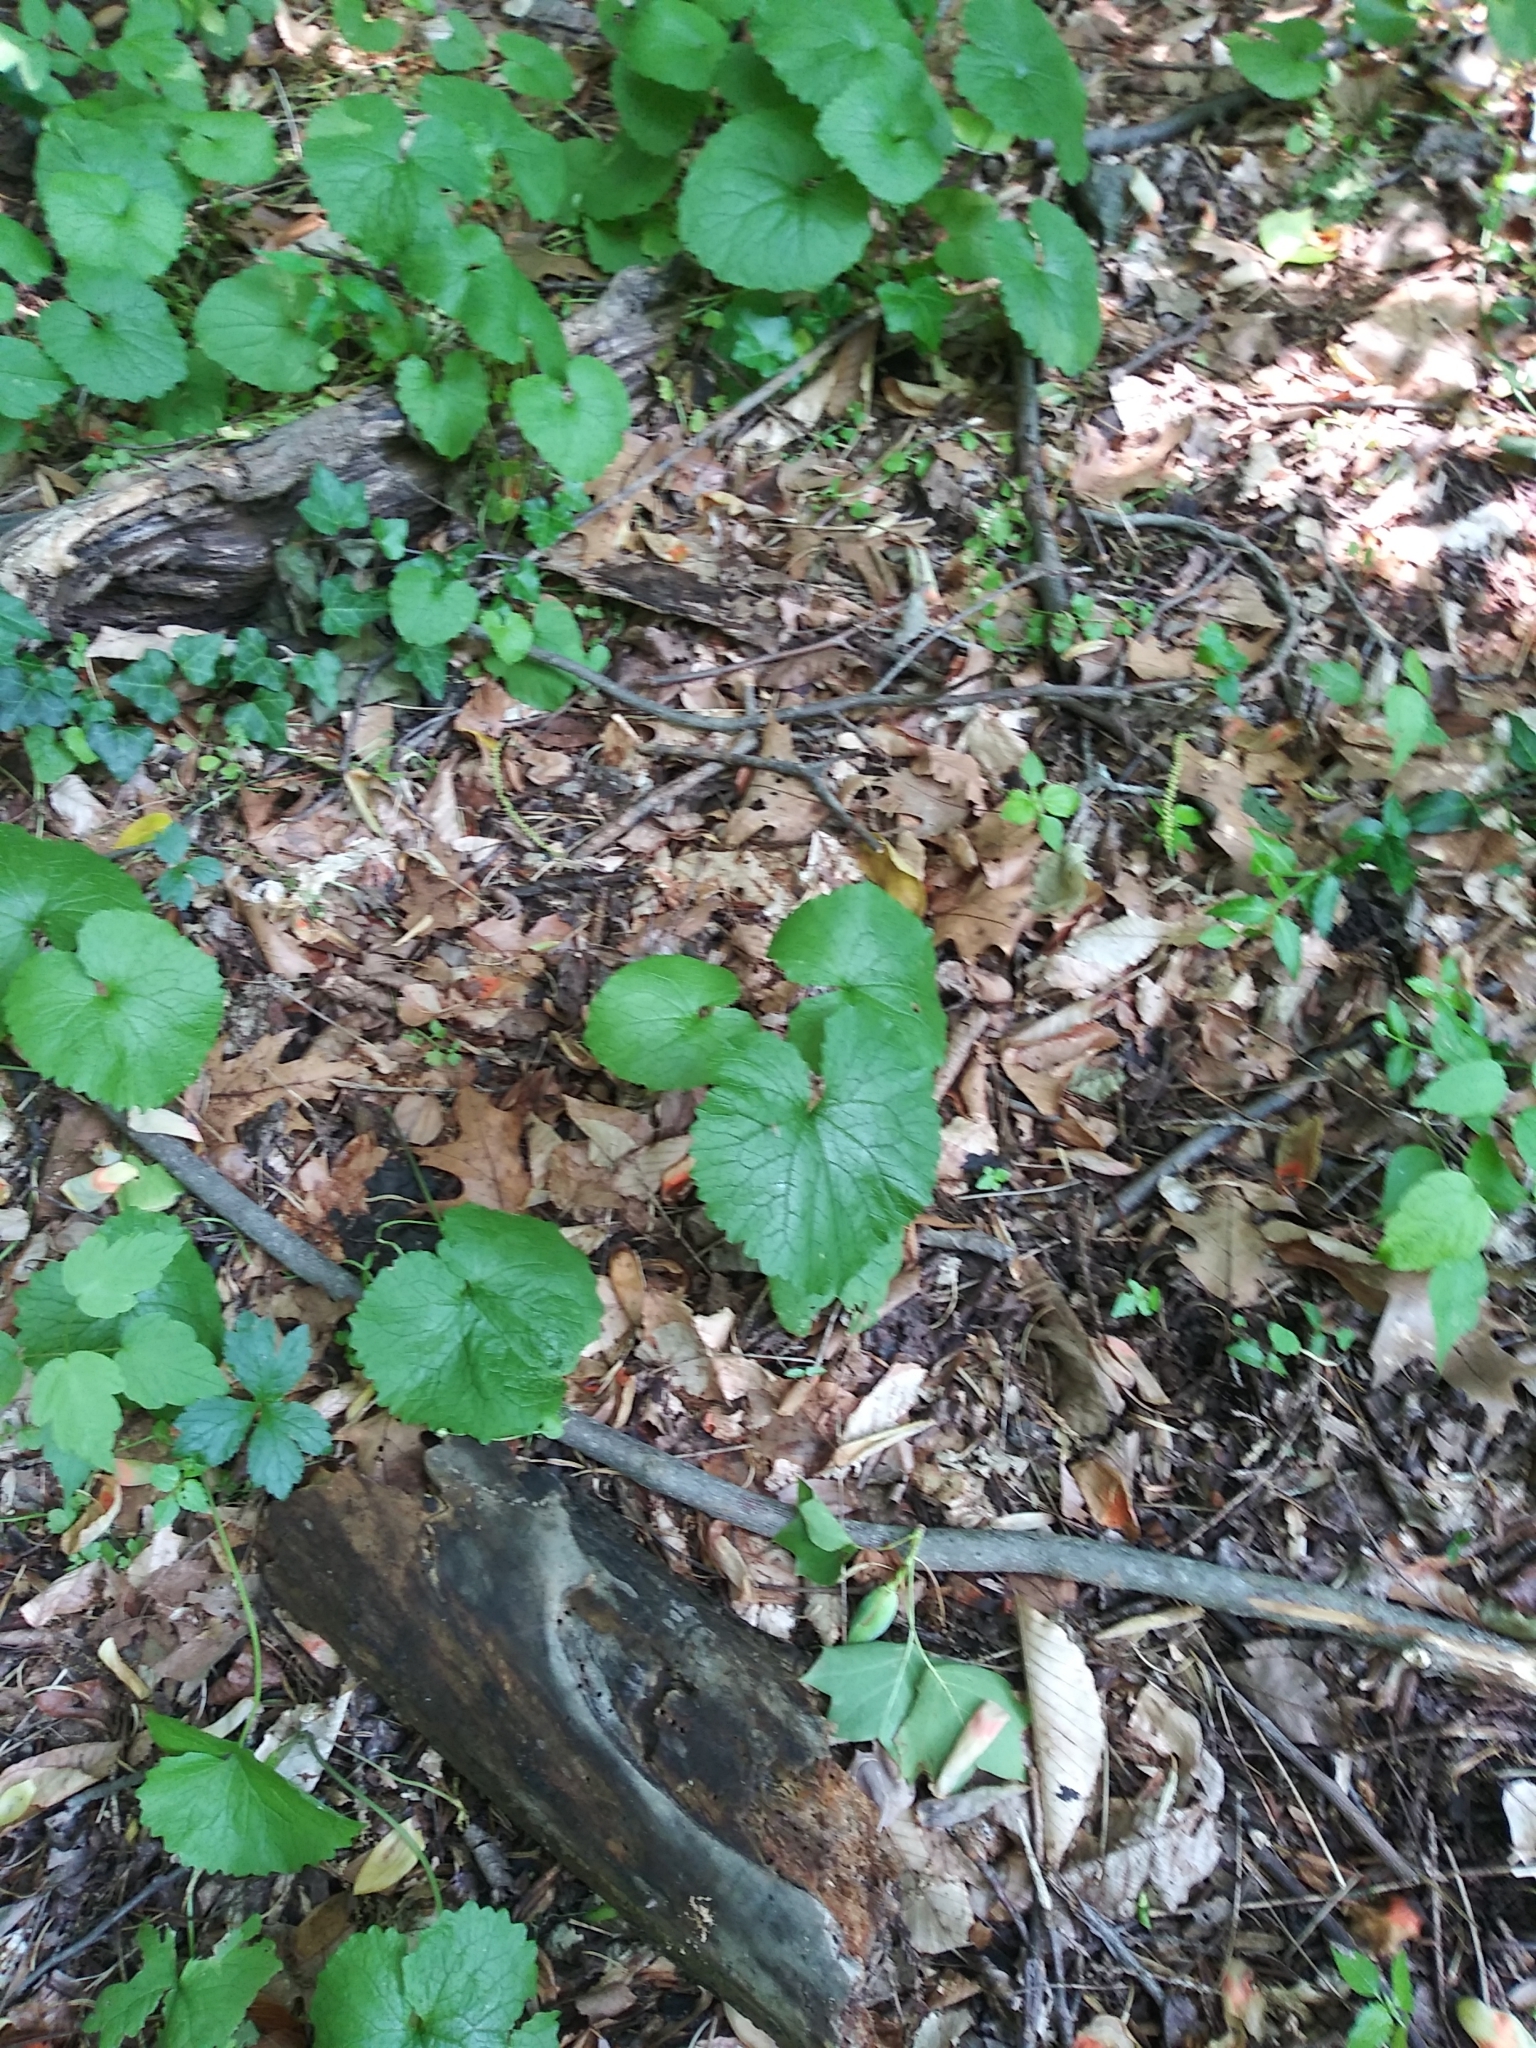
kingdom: Plantae
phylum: Tracheophyta
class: Magnoliopsida
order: Brassicales
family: Brassicaceae
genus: Alliaria
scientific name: Alliaria petiolata
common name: Garlic mustard
